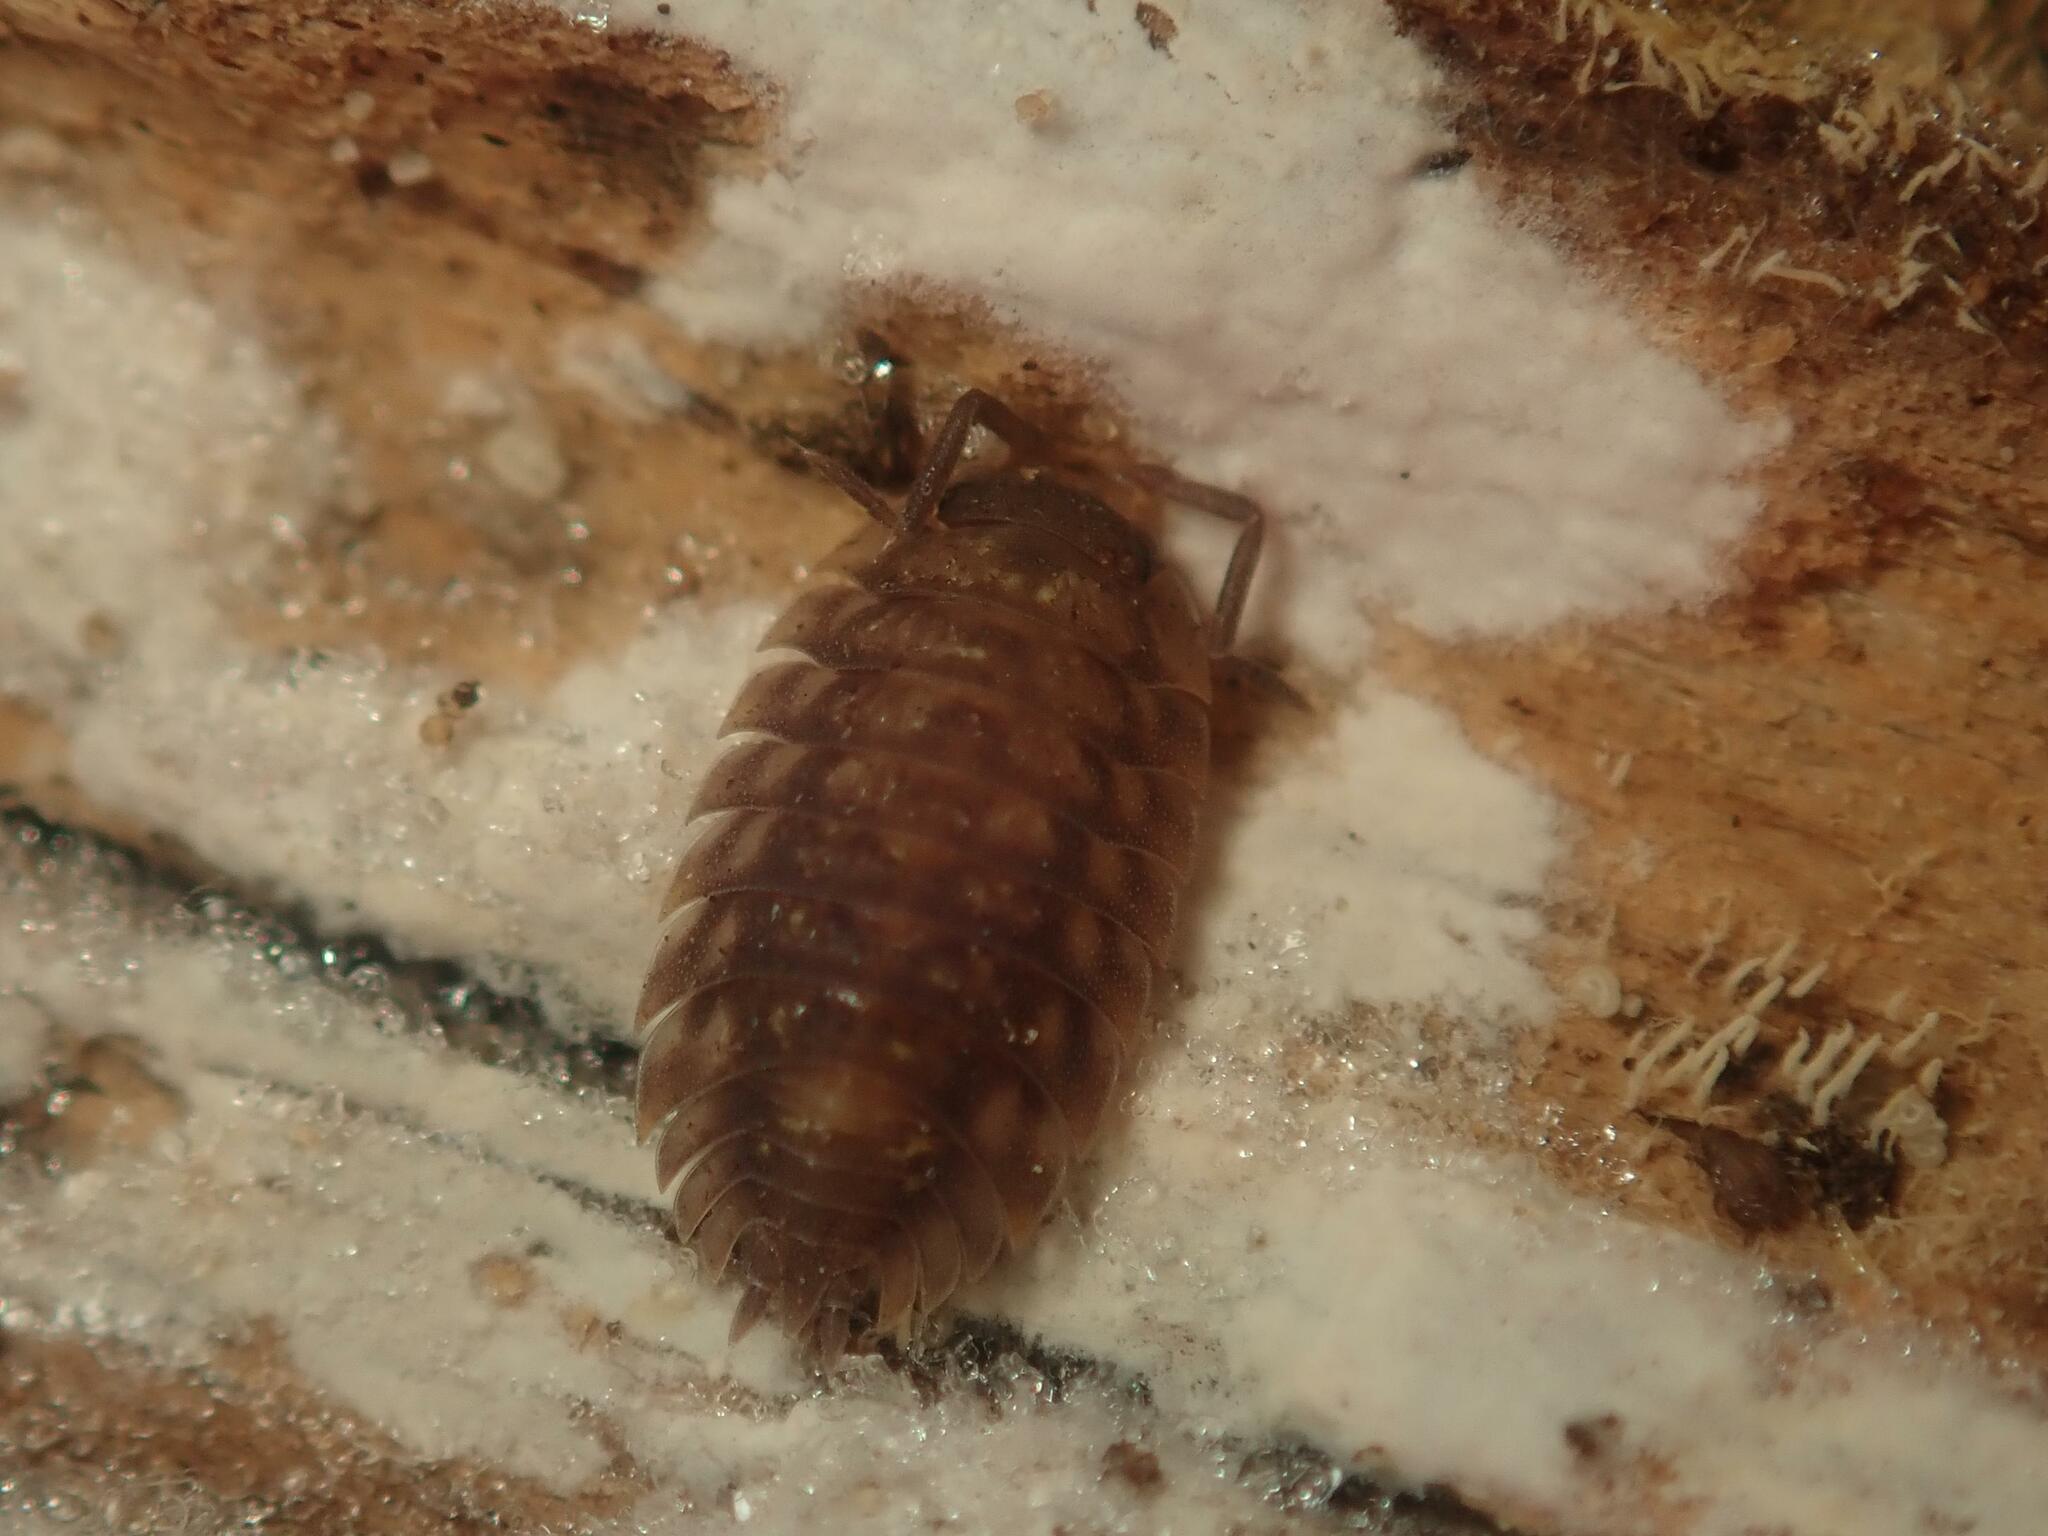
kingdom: Animalia
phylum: Arthropoda
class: Malacostraca
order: Isopoda
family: Oniscidae
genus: Oniscus
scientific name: Oniscus asellus
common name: Common shiny woodlouse
